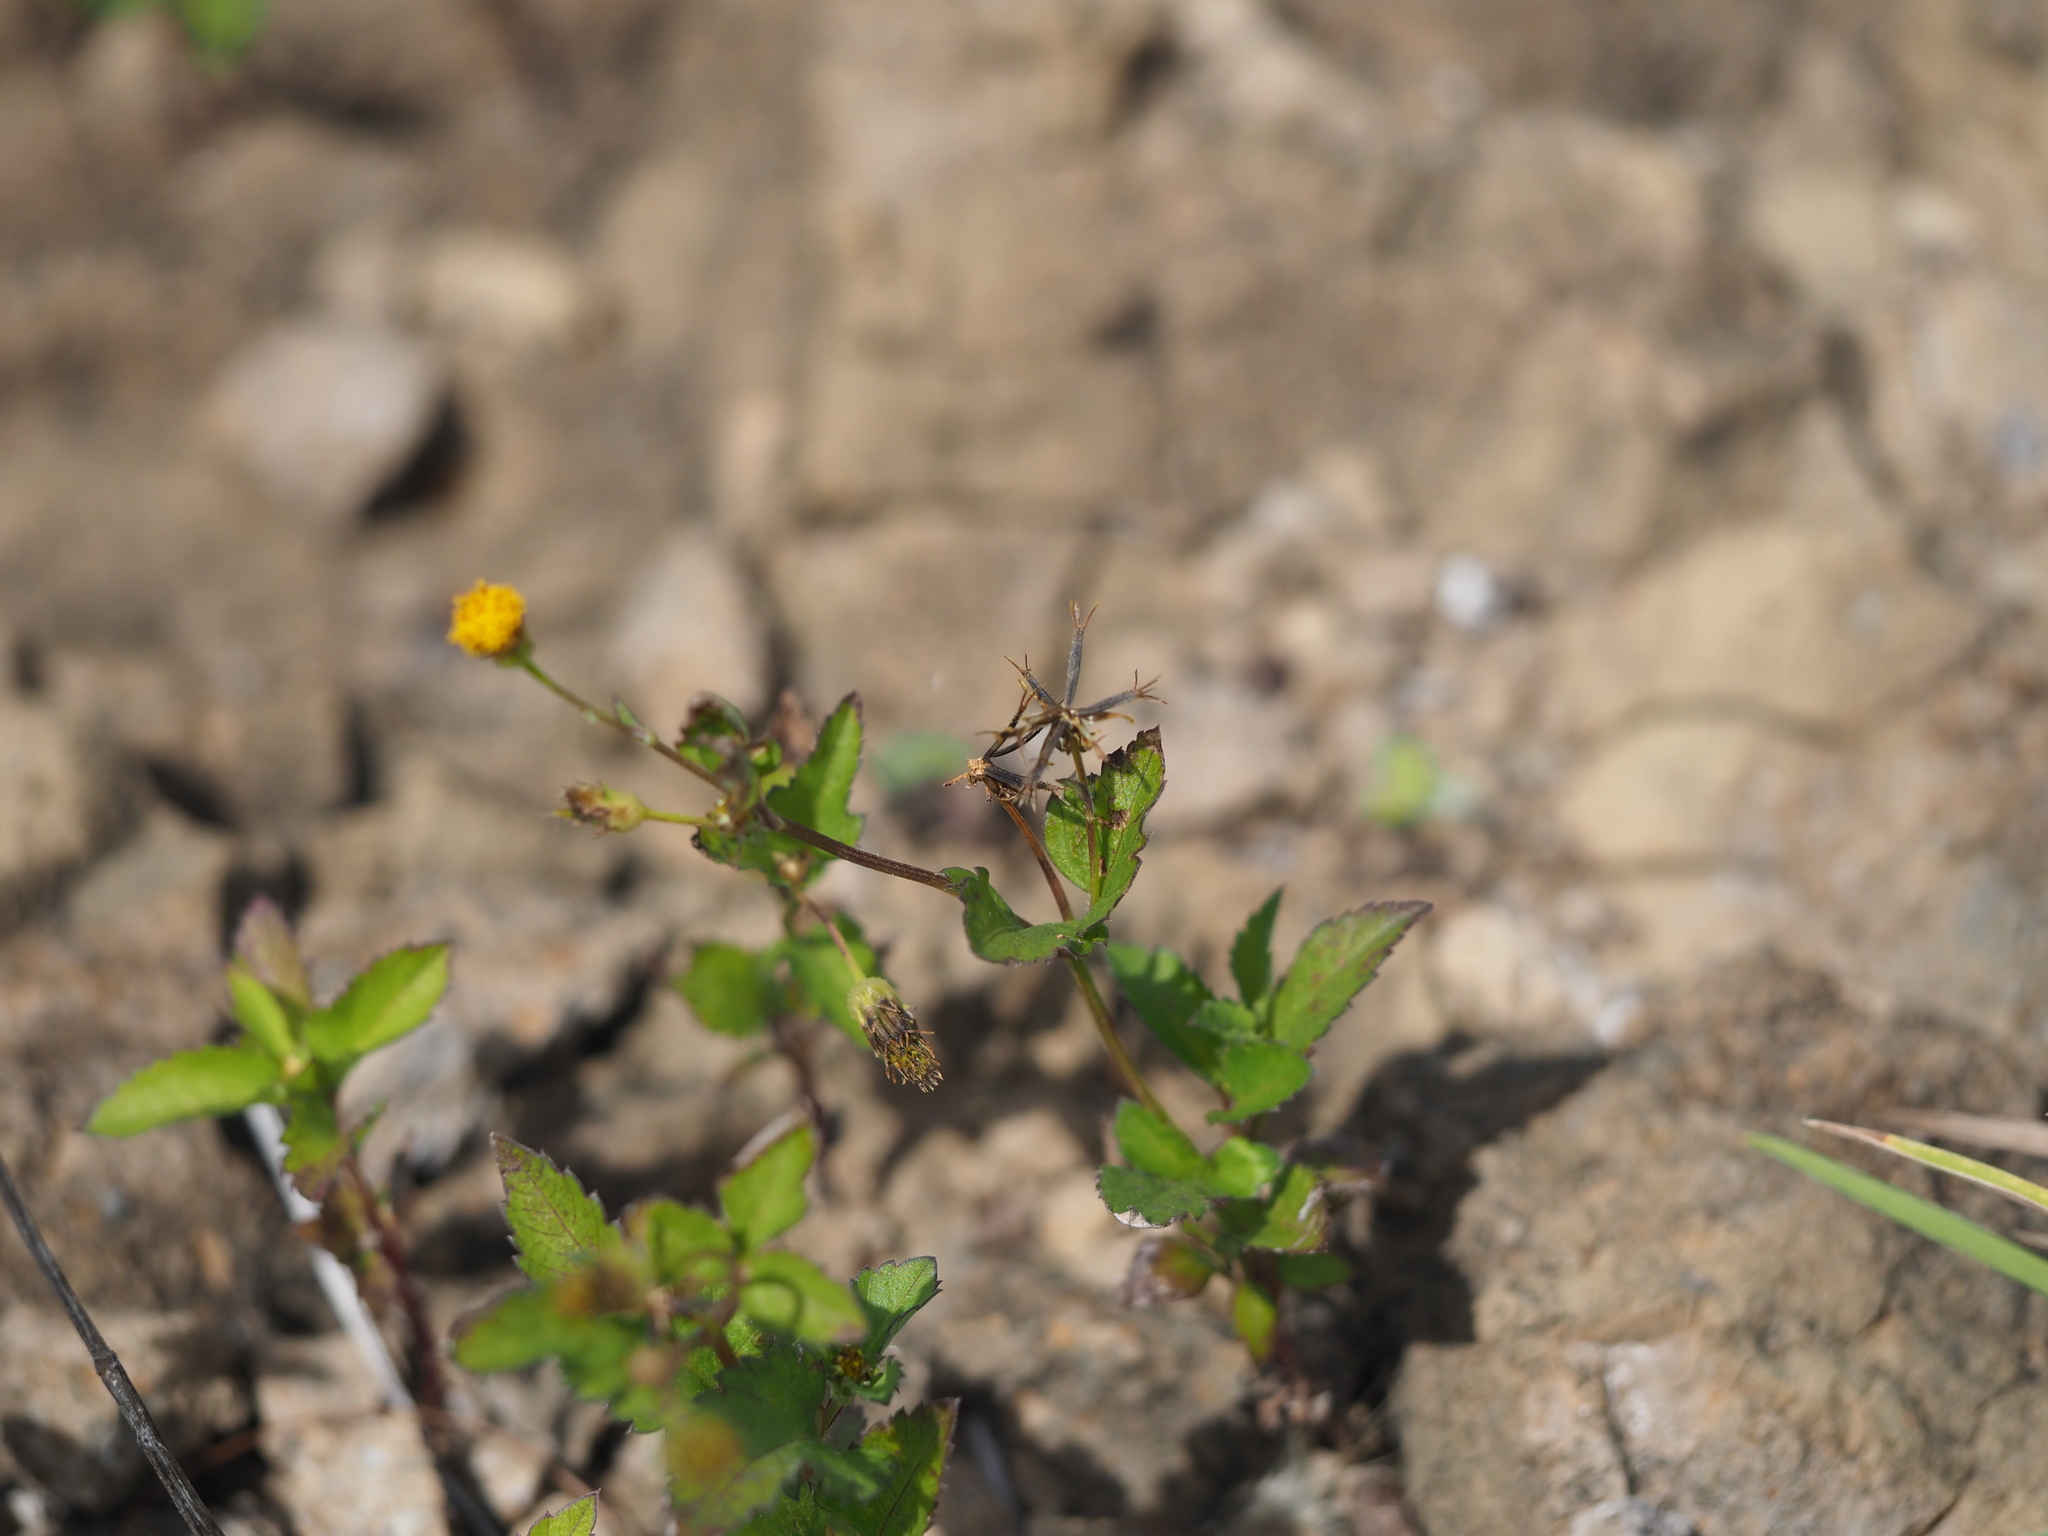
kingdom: Plantae
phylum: Tracheophyta
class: Magnoliopsida
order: Asterales
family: Asteraceae
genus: Bidens
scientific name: Bidens pilosa
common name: Black-jack
